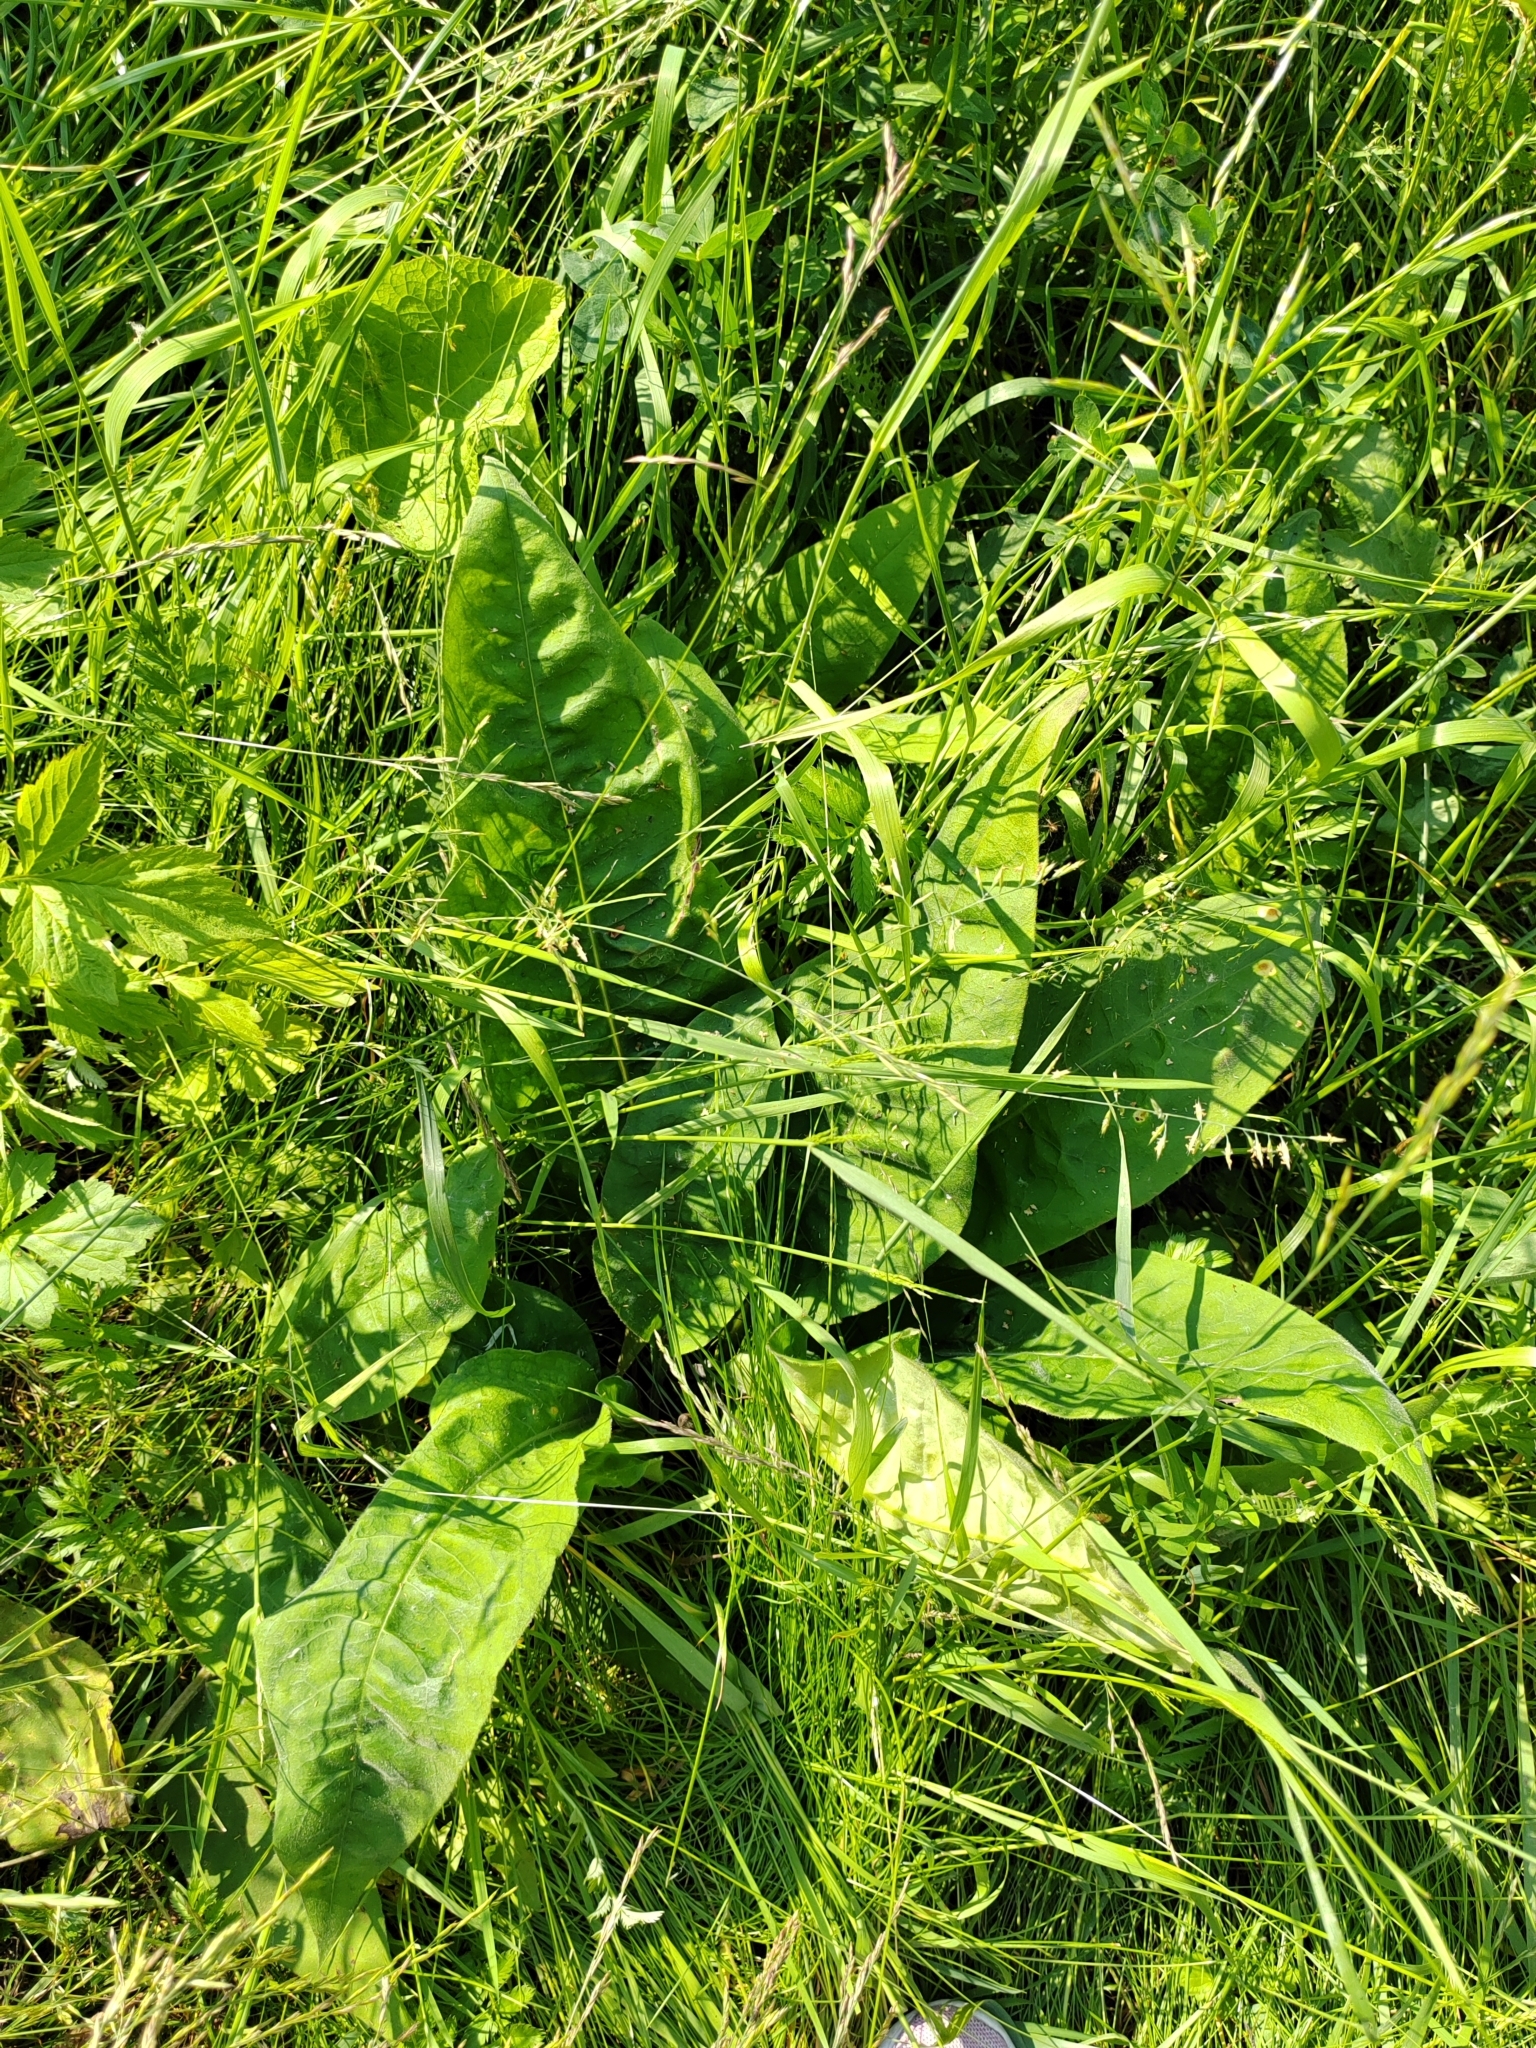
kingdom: Plantae
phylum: Tracheophyta
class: Magnoliopsida
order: Boraginales
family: Boraginaceae
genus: Pulmonaria
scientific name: Pulmonaria mollis
